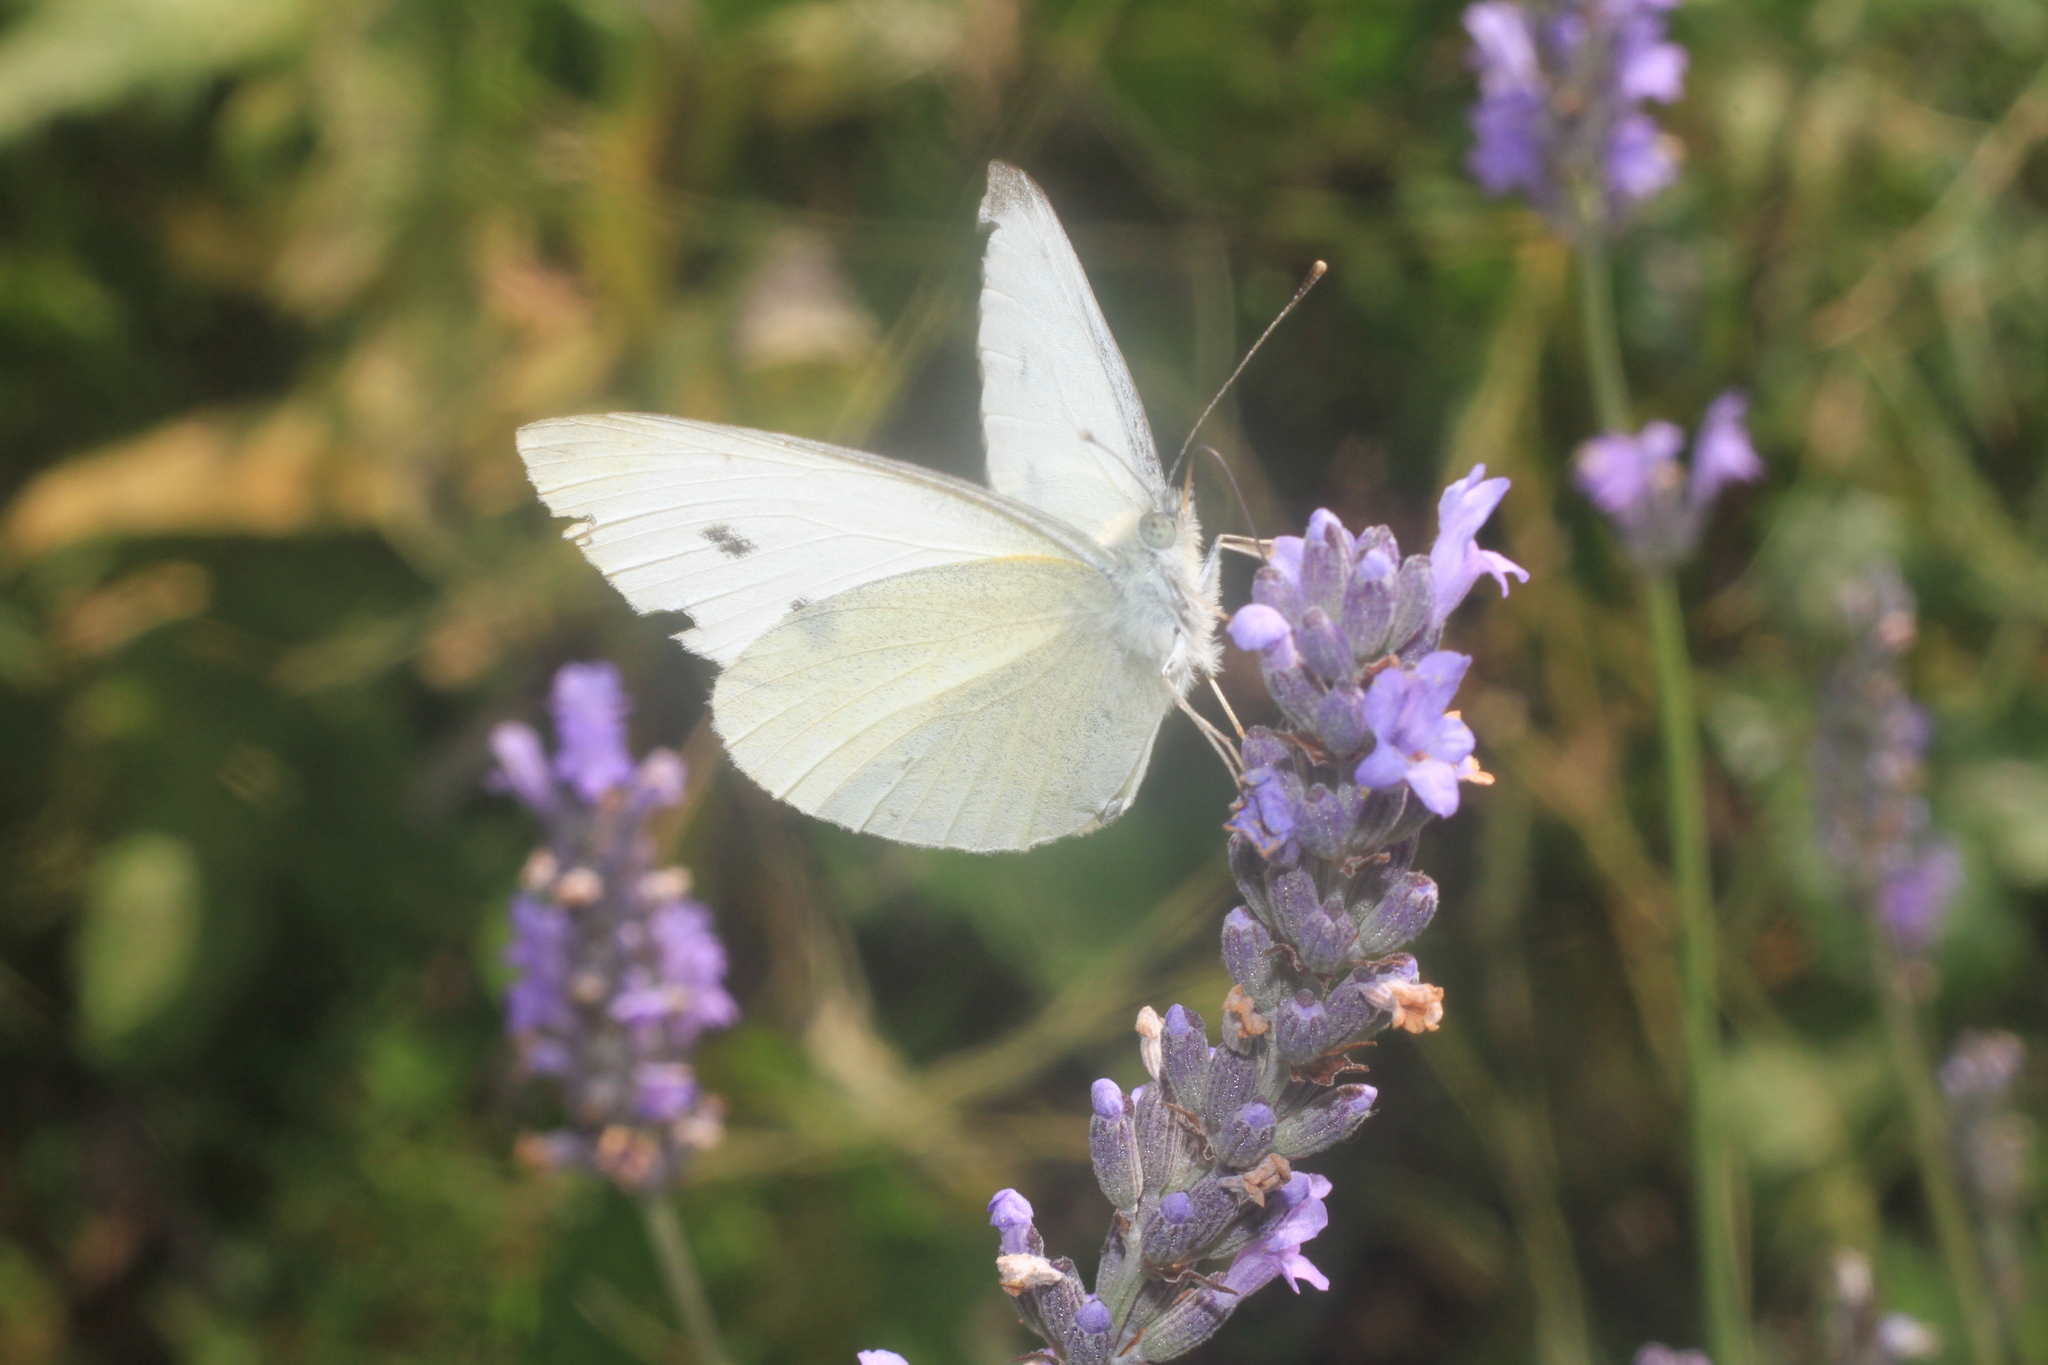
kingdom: Animalia
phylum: Arthropoda
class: Insecta
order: Lepidoptera
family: Pieridae
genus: Pieris
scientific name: Pieris rapae
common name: Small white
